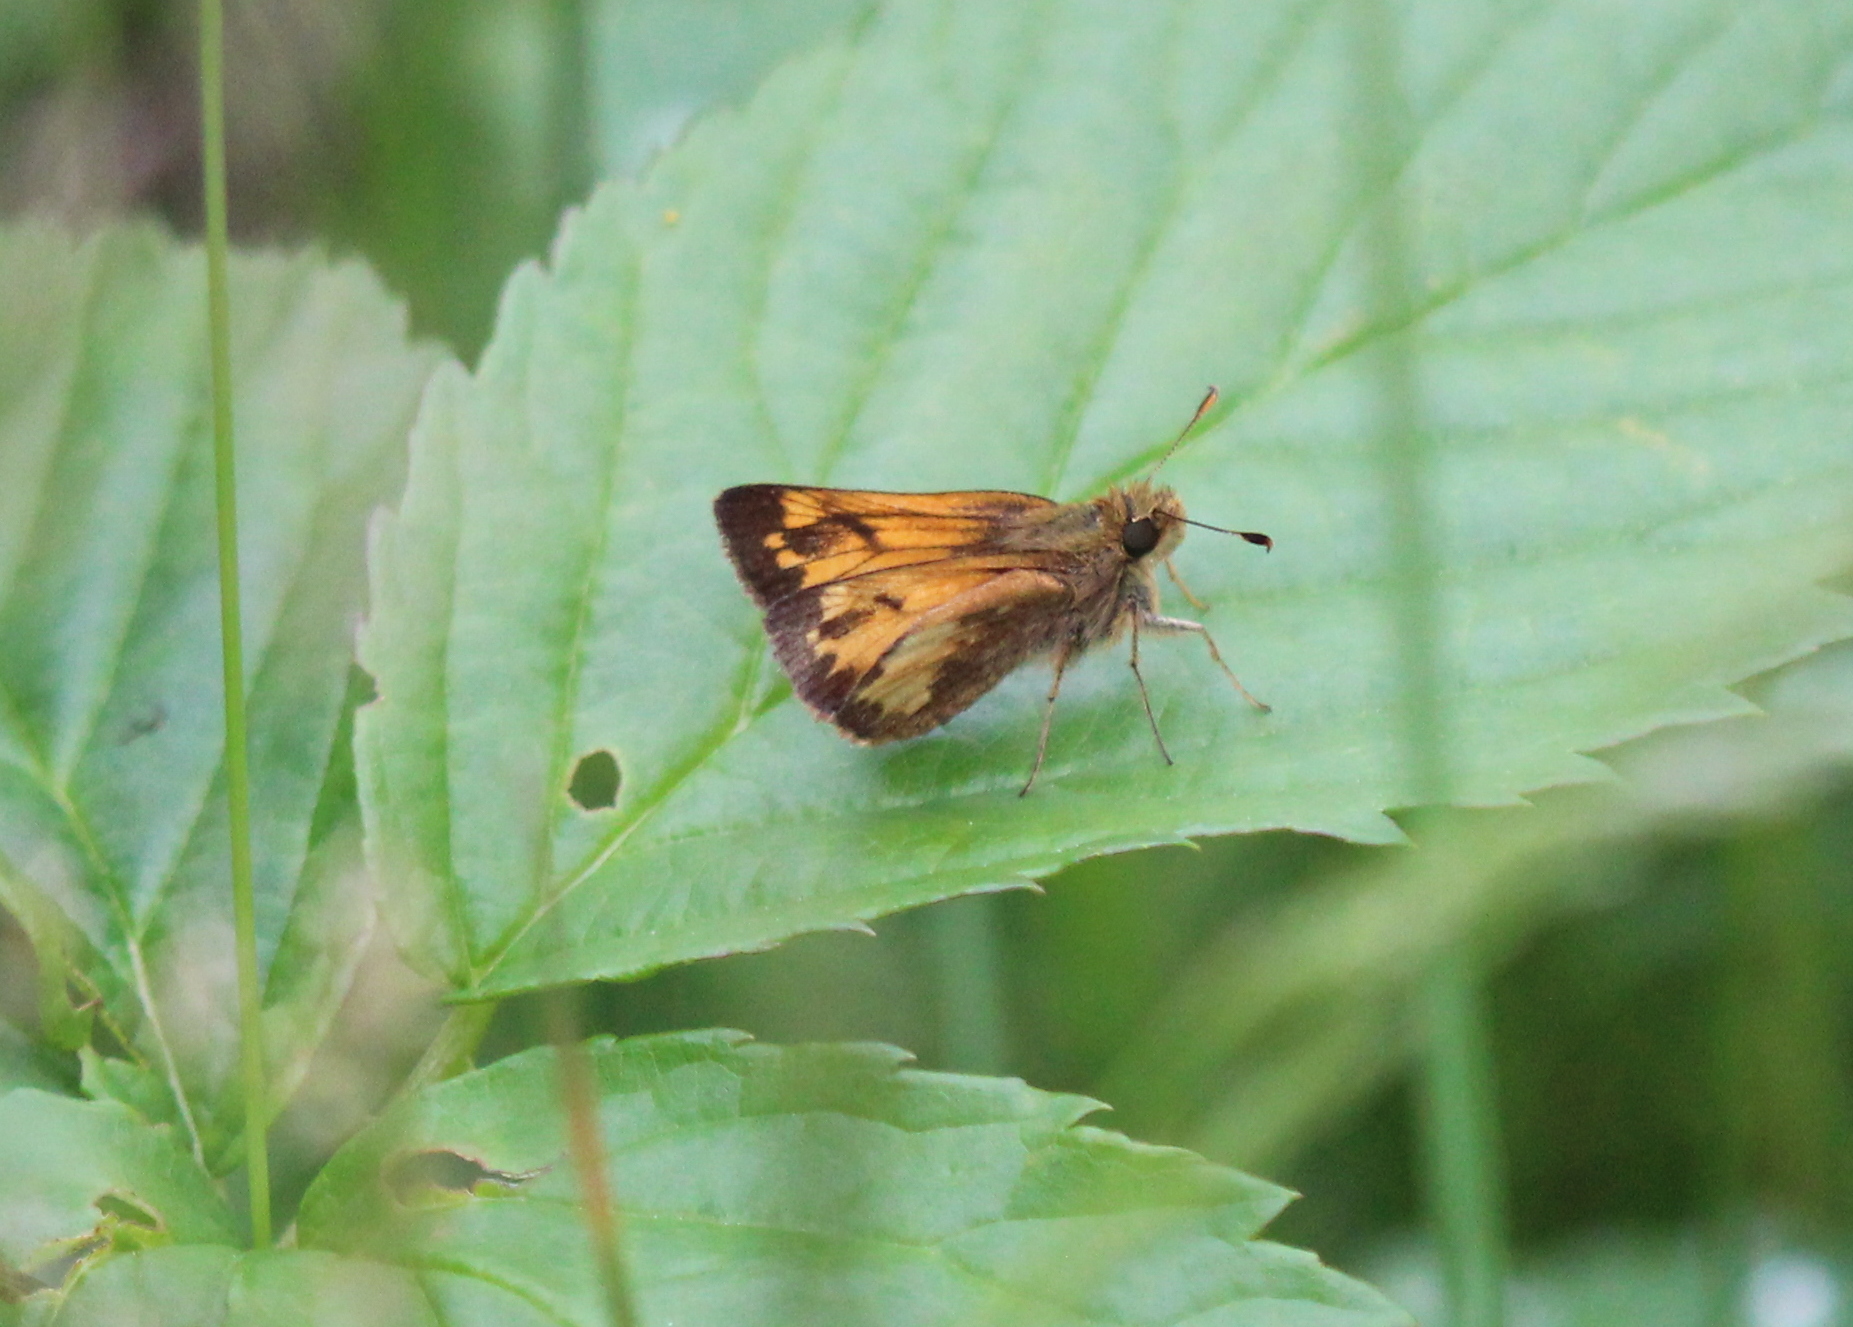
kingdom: Animalia
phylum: Arthropoda
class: Insecta
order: Lepidoptera
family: Hesperiidae
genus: Lon
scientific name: Lon hobomok
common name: Hobomok skipper
